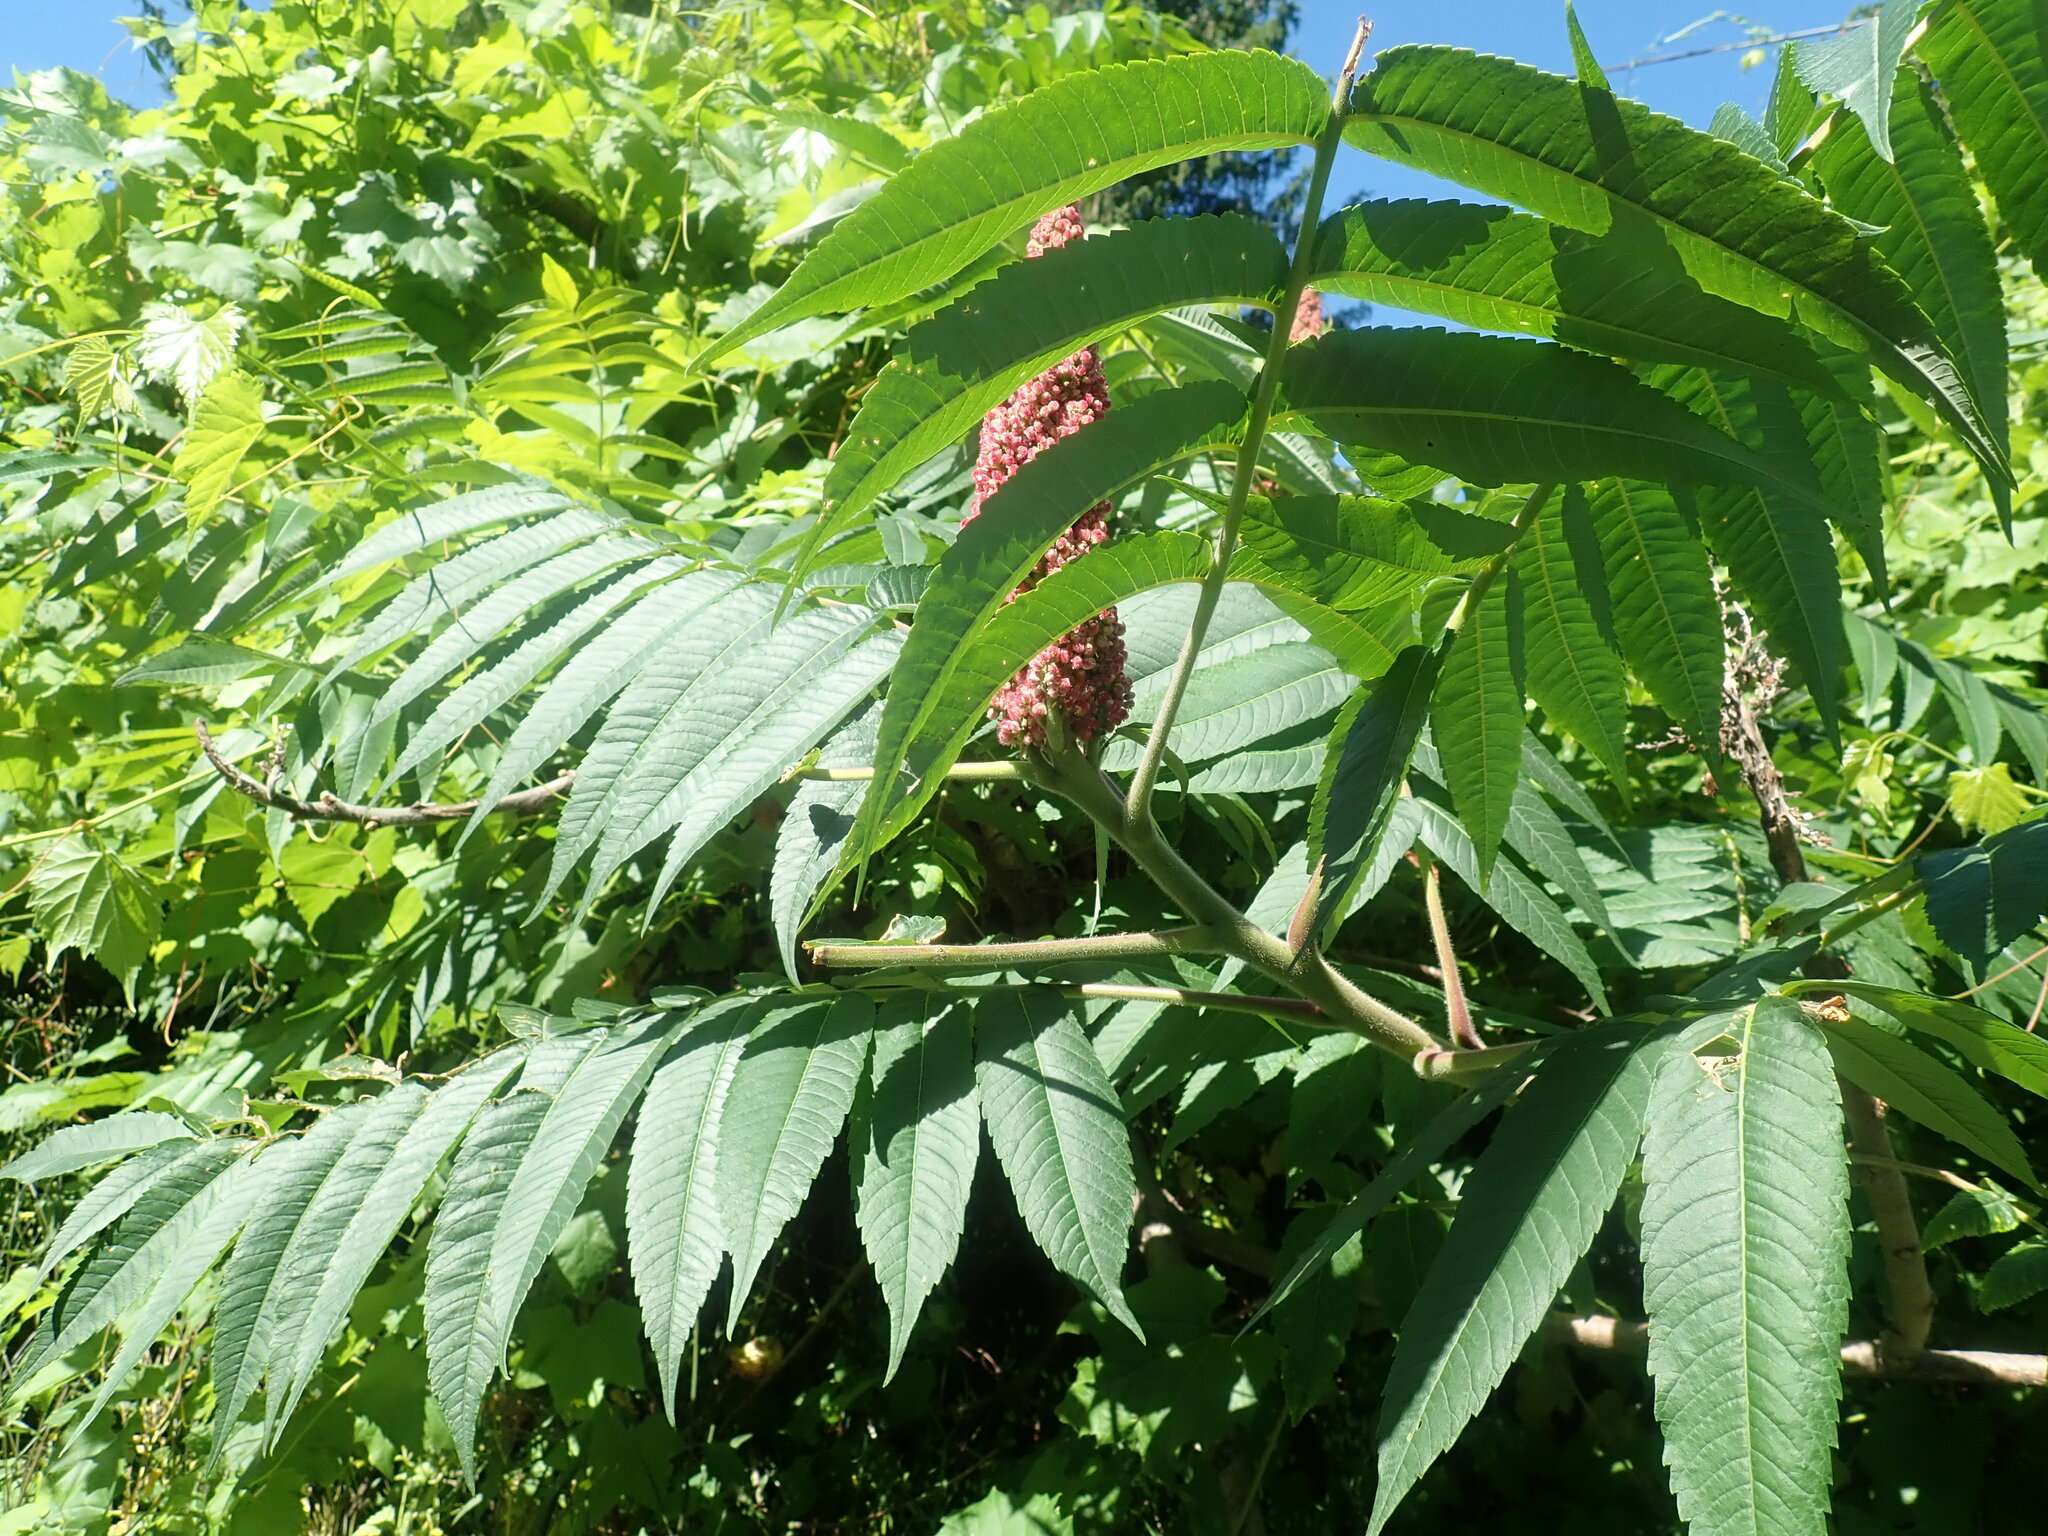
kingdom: Plantae
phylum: Tracheophyta
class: Magnoliopsida
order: Sapindales
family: Anacardiaceae
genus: Rhus
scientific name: Rhus typhina
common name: Staghorn sumac
